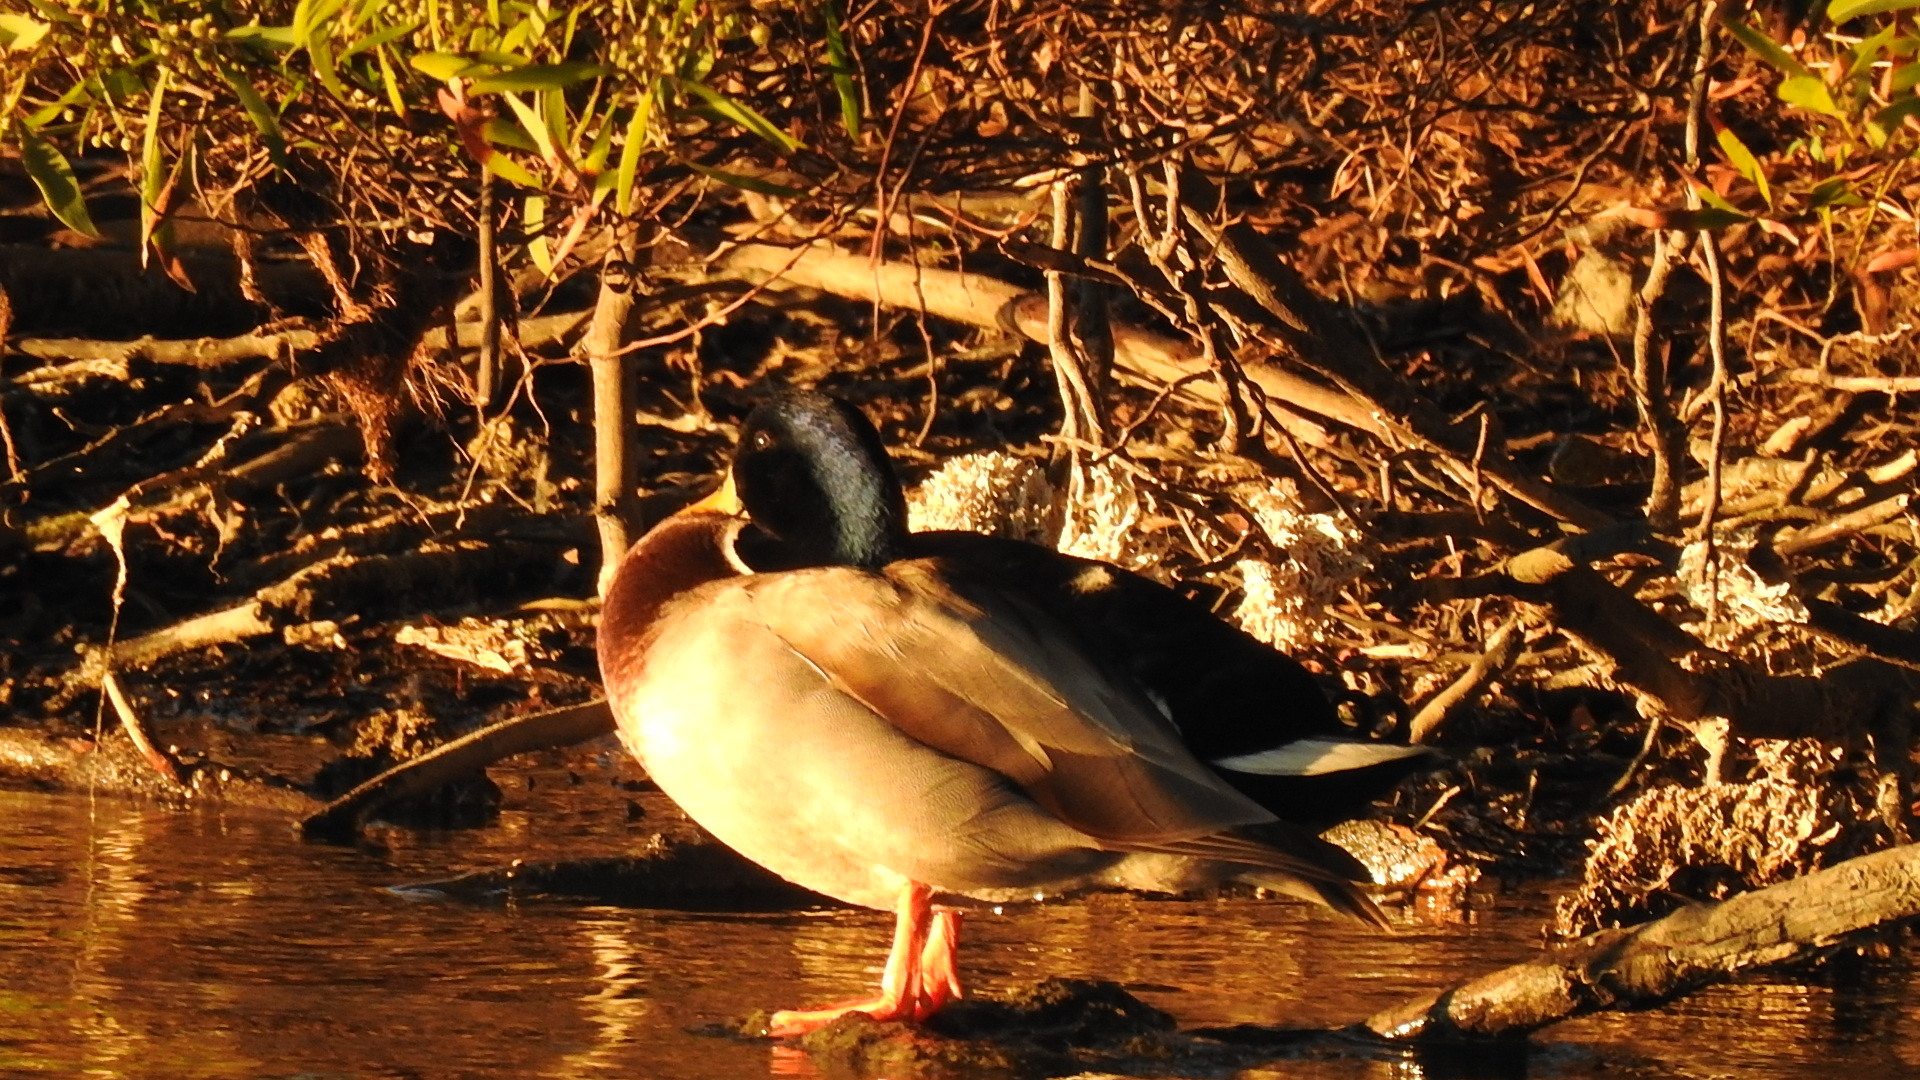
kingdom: Animalia
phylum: Chordata
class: Aves
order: Anseriformes
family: Anatidae
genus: Anas
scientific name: Anas platyrhynchos
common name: Mallard
